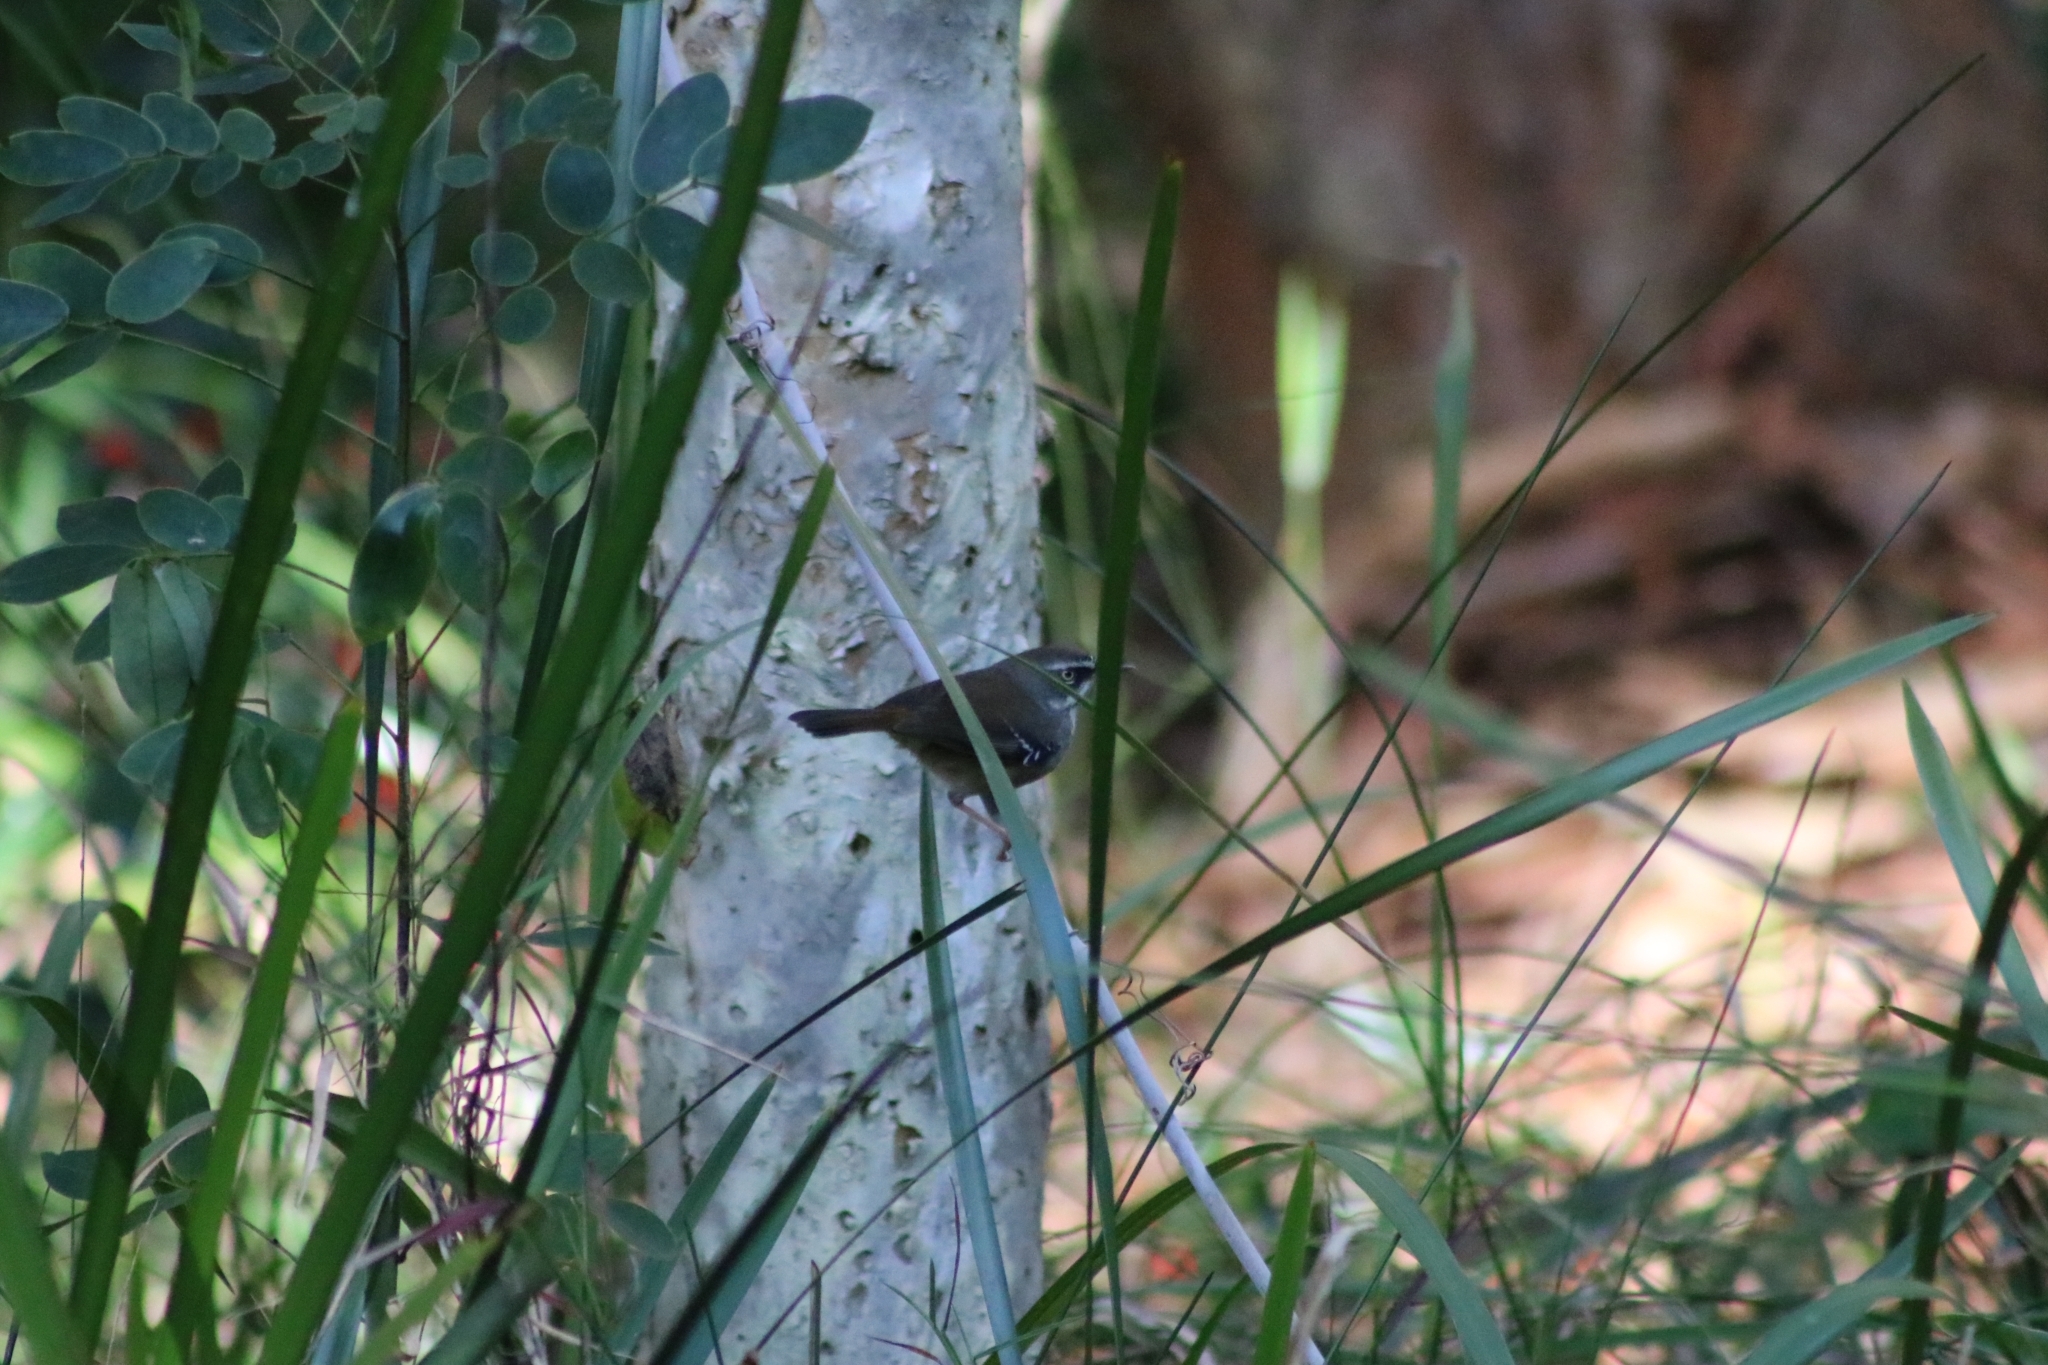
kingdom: Animalia
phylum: Chordata
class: Aves
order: Passeriformes
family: Acanthizidae
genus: Sericornis
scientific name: Sericornis frontalis
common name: White-browed scrubwren
